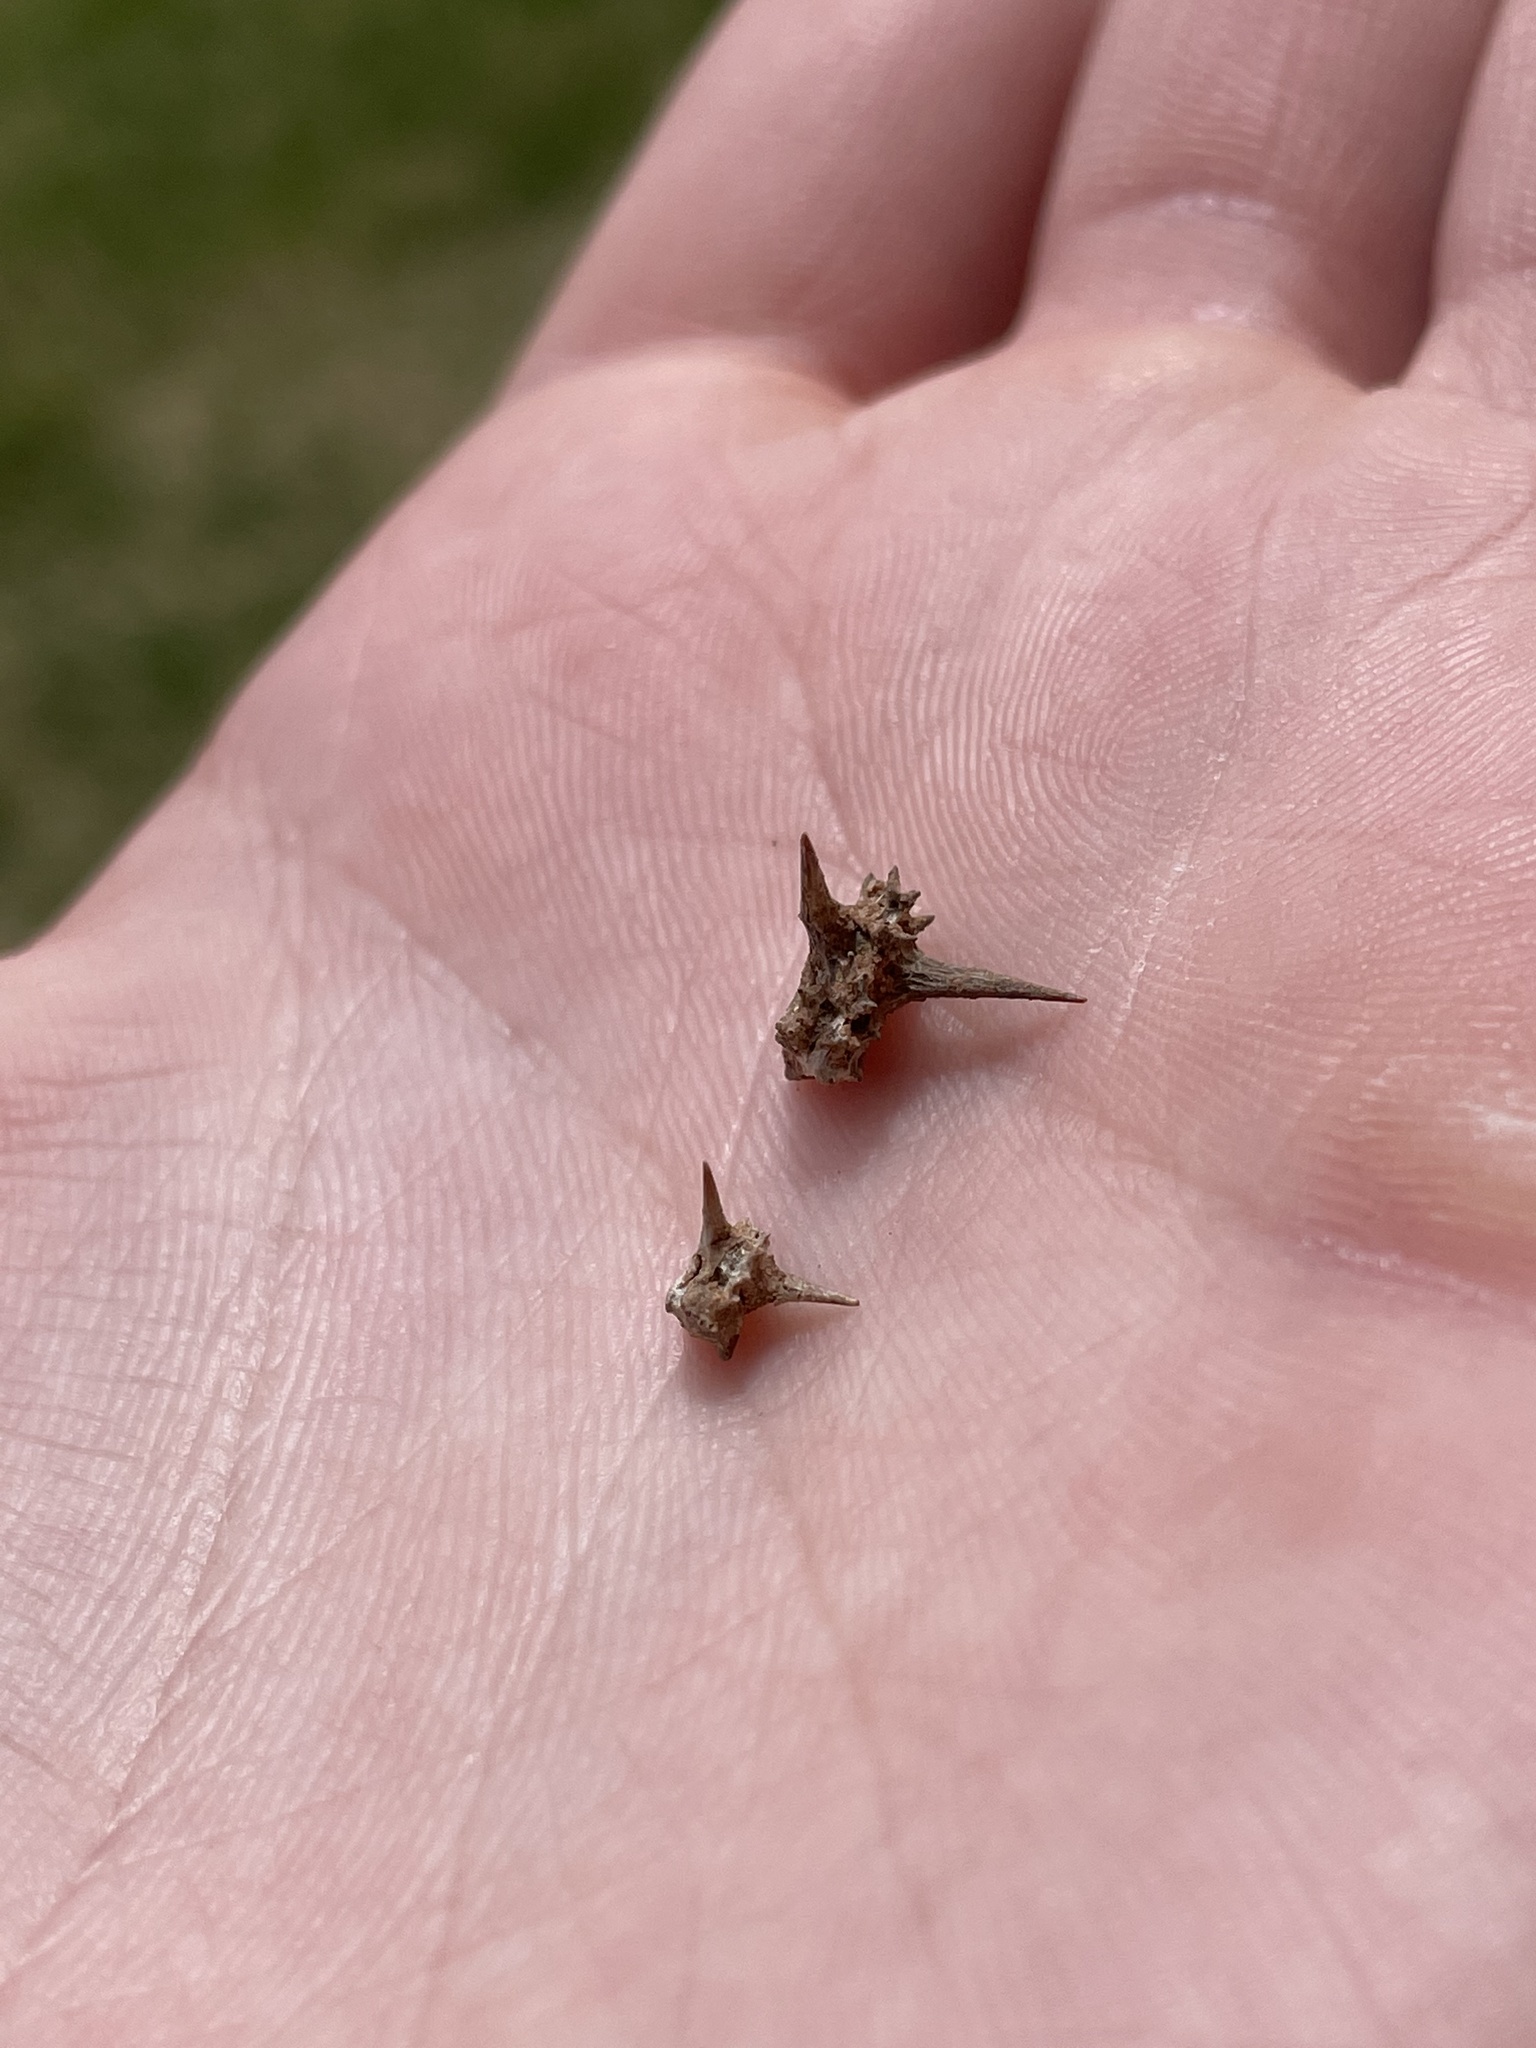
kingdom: Plantae
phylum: Tracheophyta
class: Magnoliopsida
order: Zygophyllales
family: Zygophyllaceae
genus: Tribulus
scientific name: Tribulus terrestris
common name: Puncturevine
